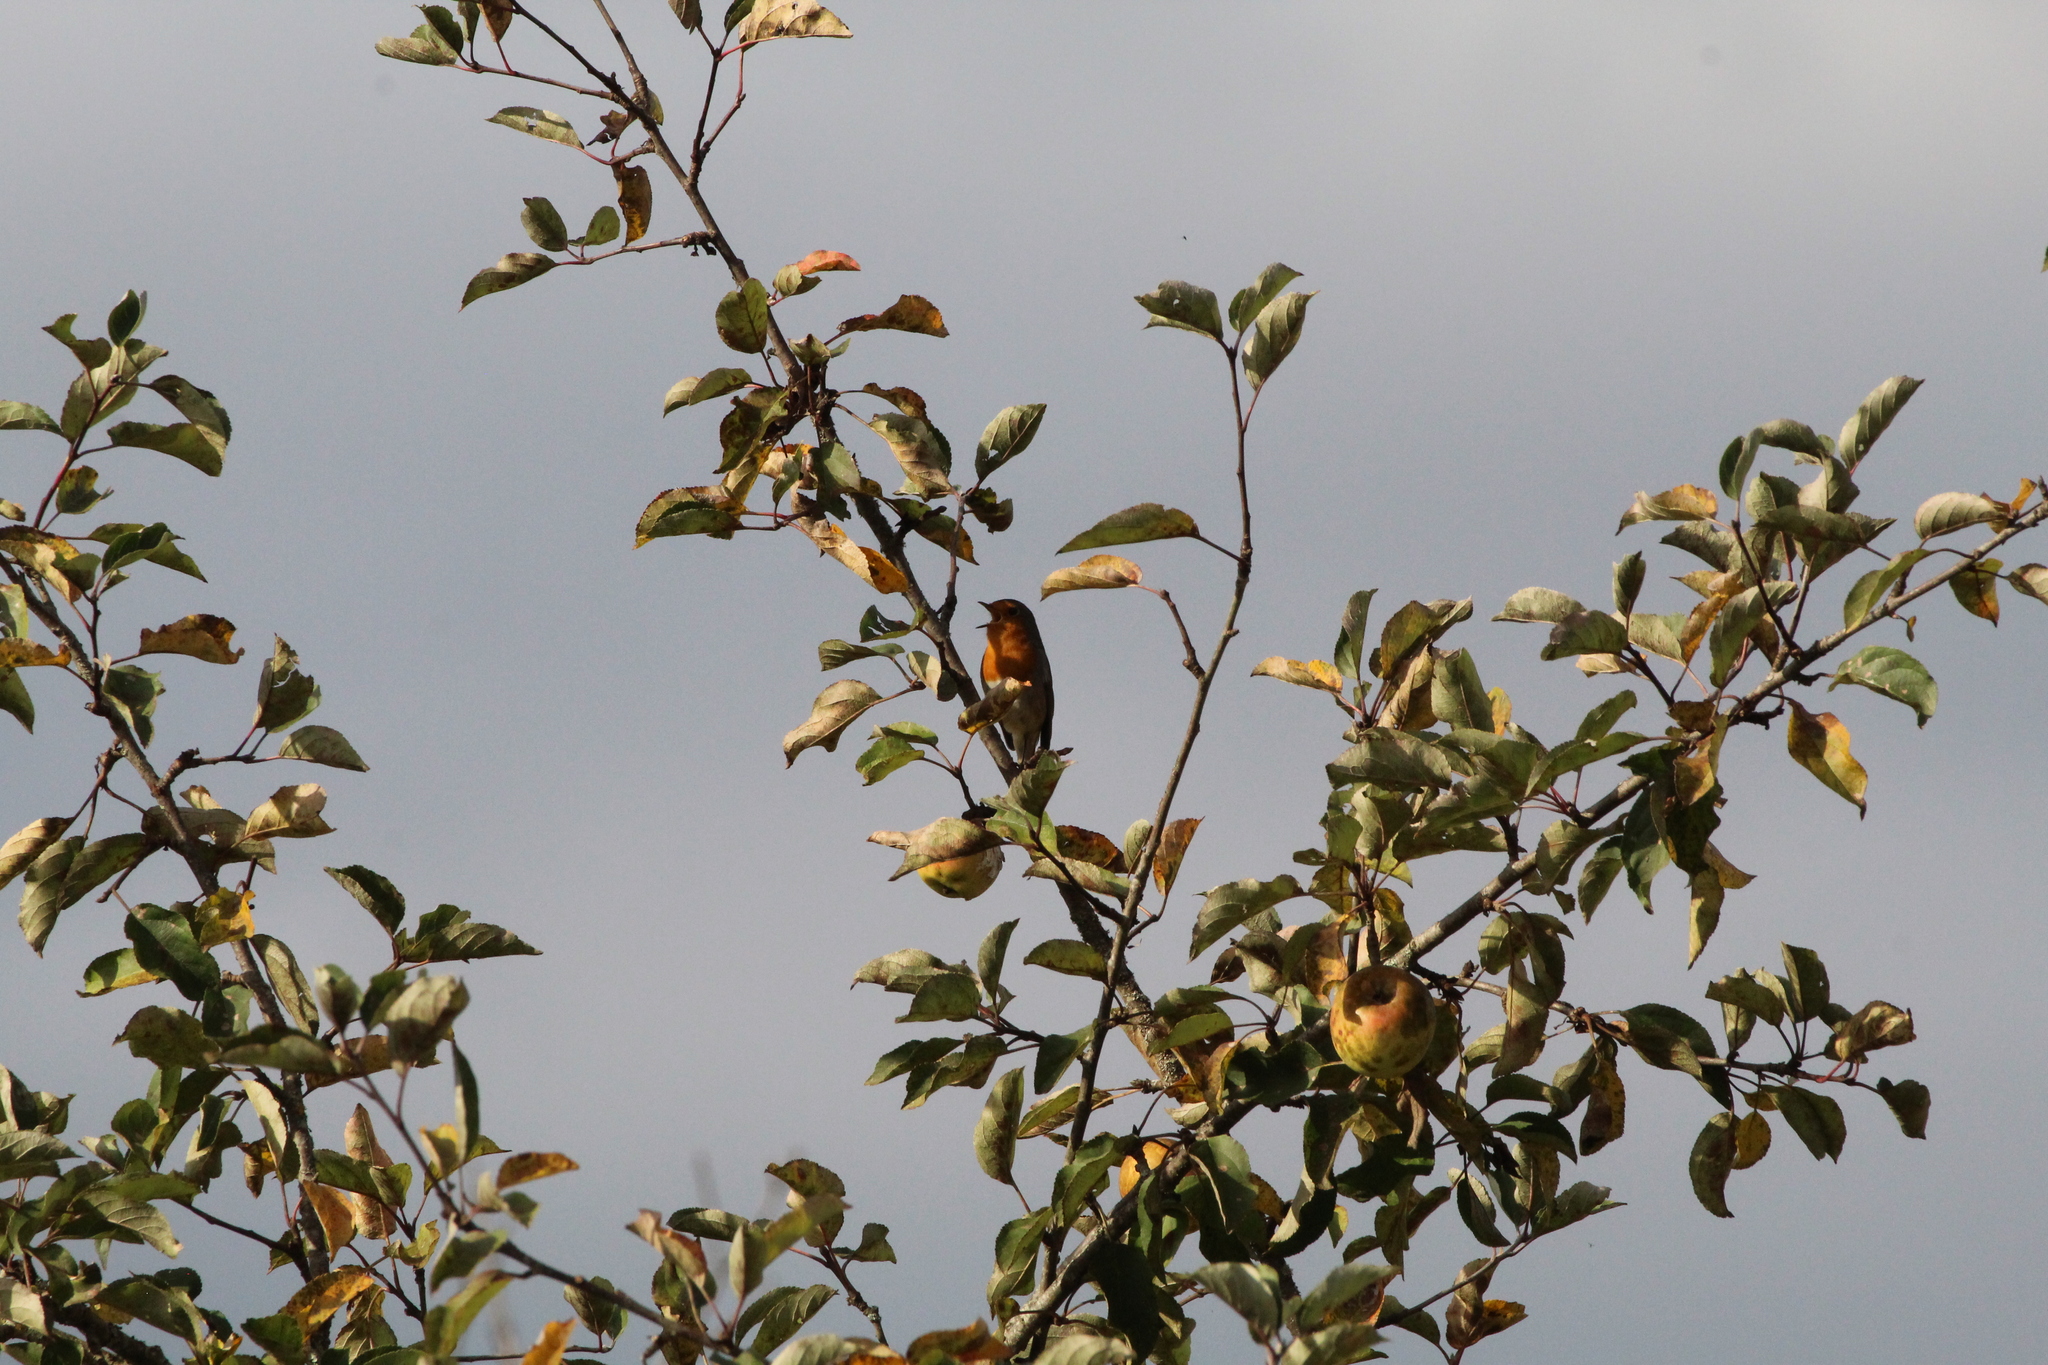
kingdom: Animalia
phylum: Chordata
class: Aves
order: Passeriformes
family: Muscicapidae
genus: Erithacus
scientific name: Erithacus rubecula
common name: European robin
